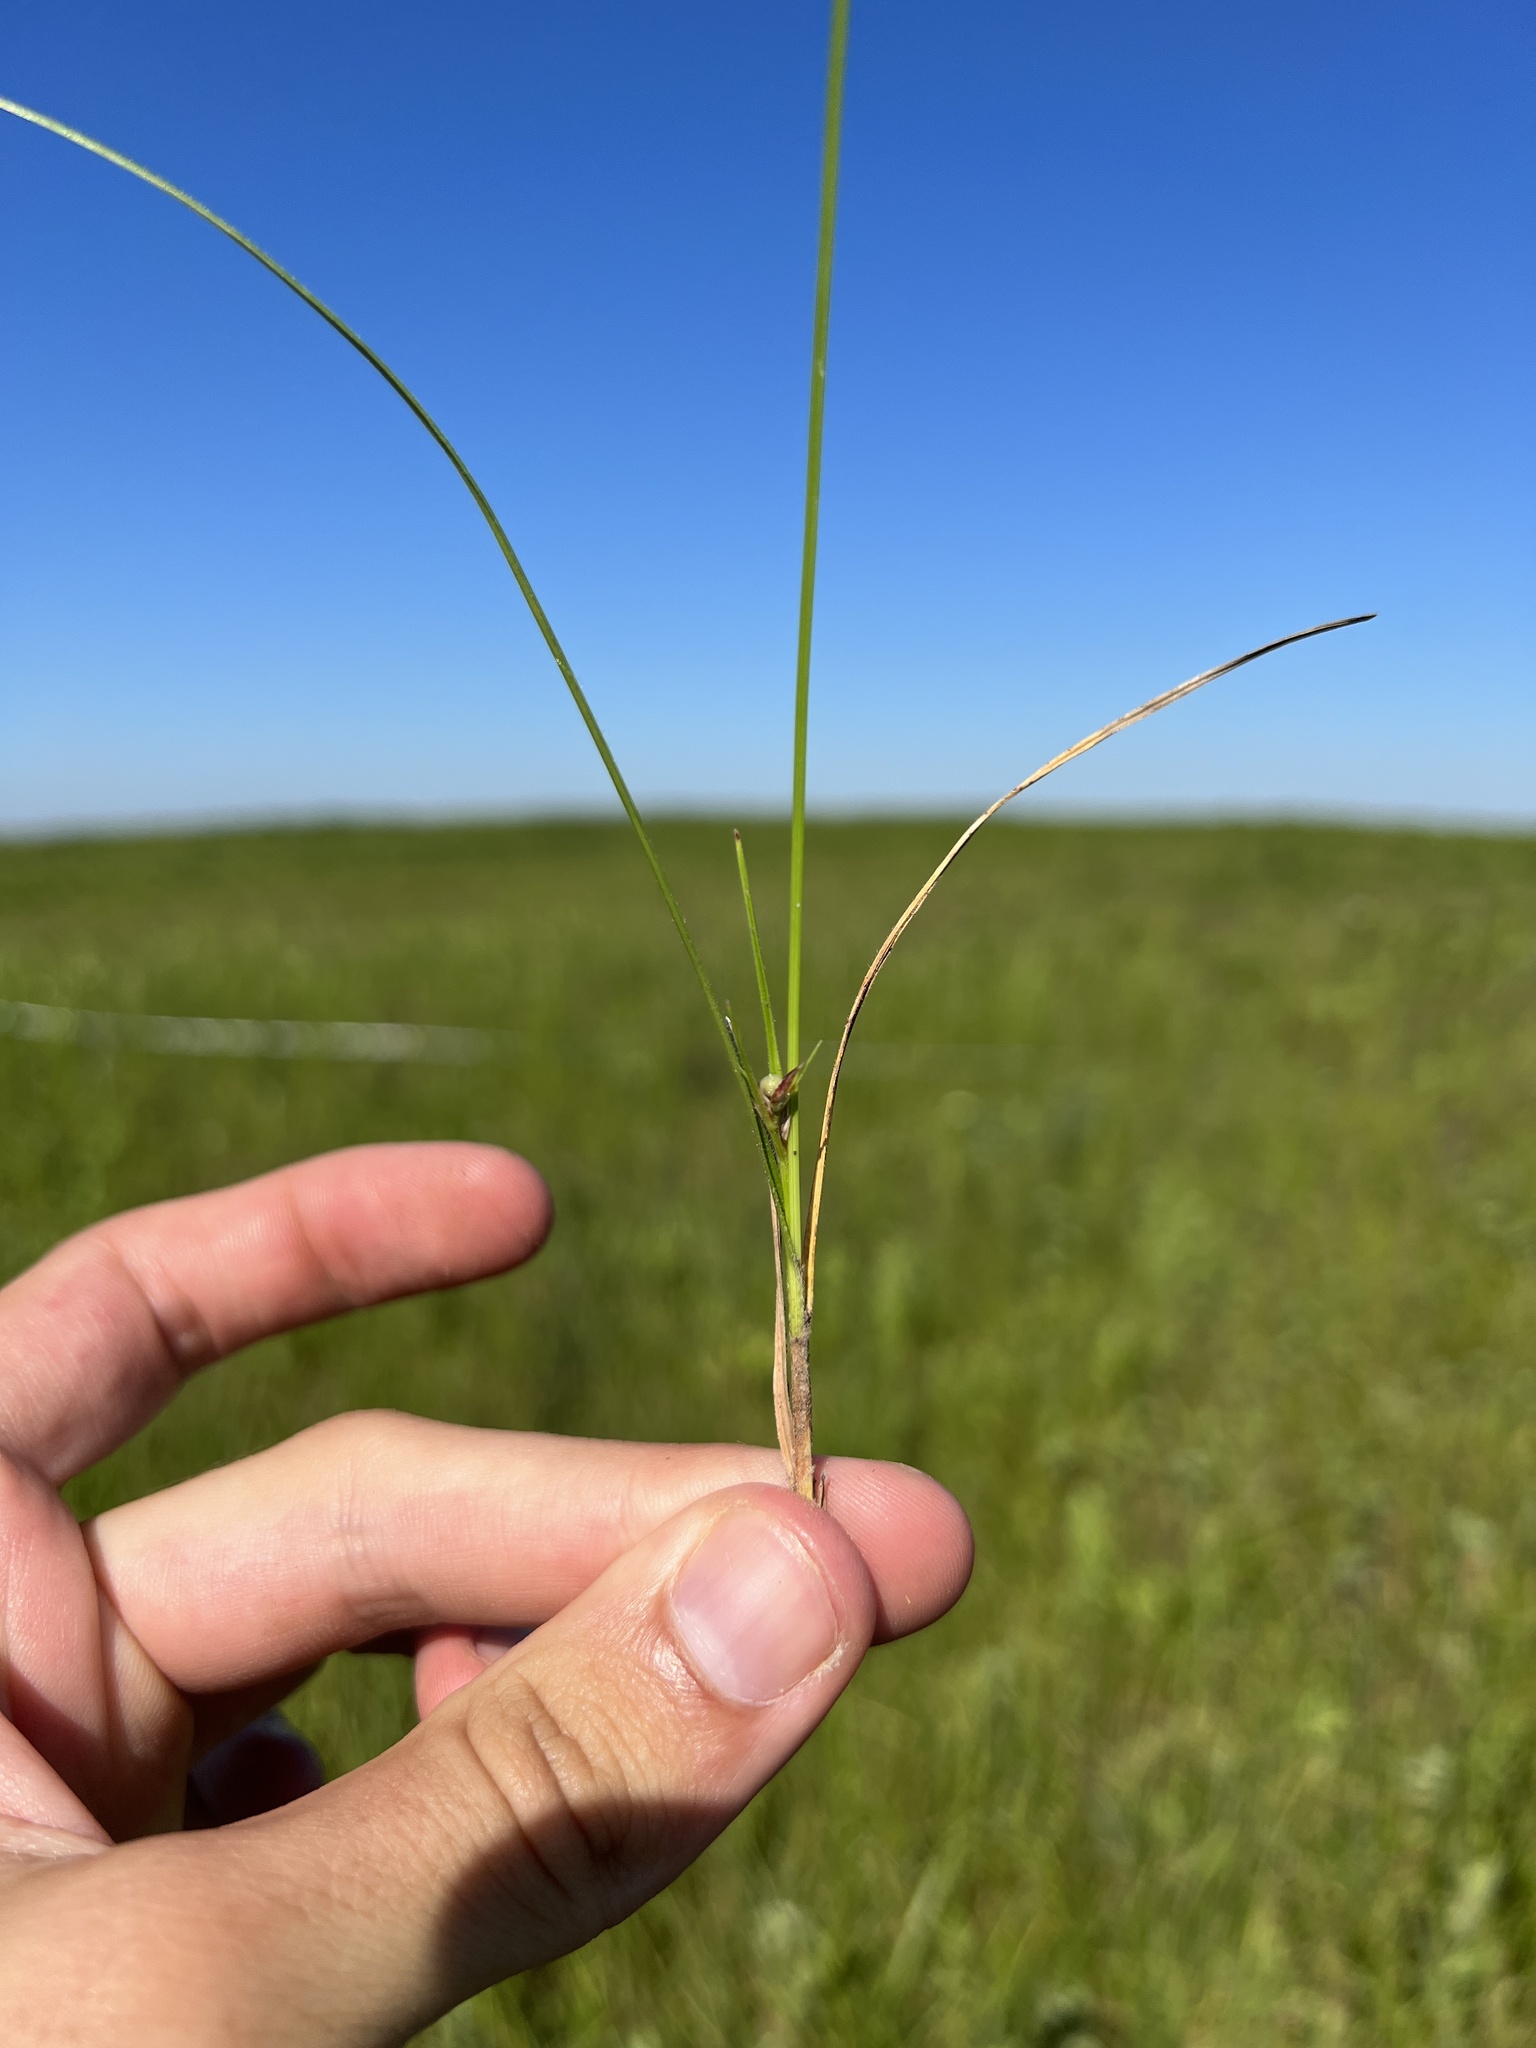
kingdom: Plantae
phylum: Tracheophyta
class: Liliopsida
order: Poales
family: Cyperaceae
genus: Scleria
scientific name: Scleria pauciflora
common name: Few-flowered nutrush
